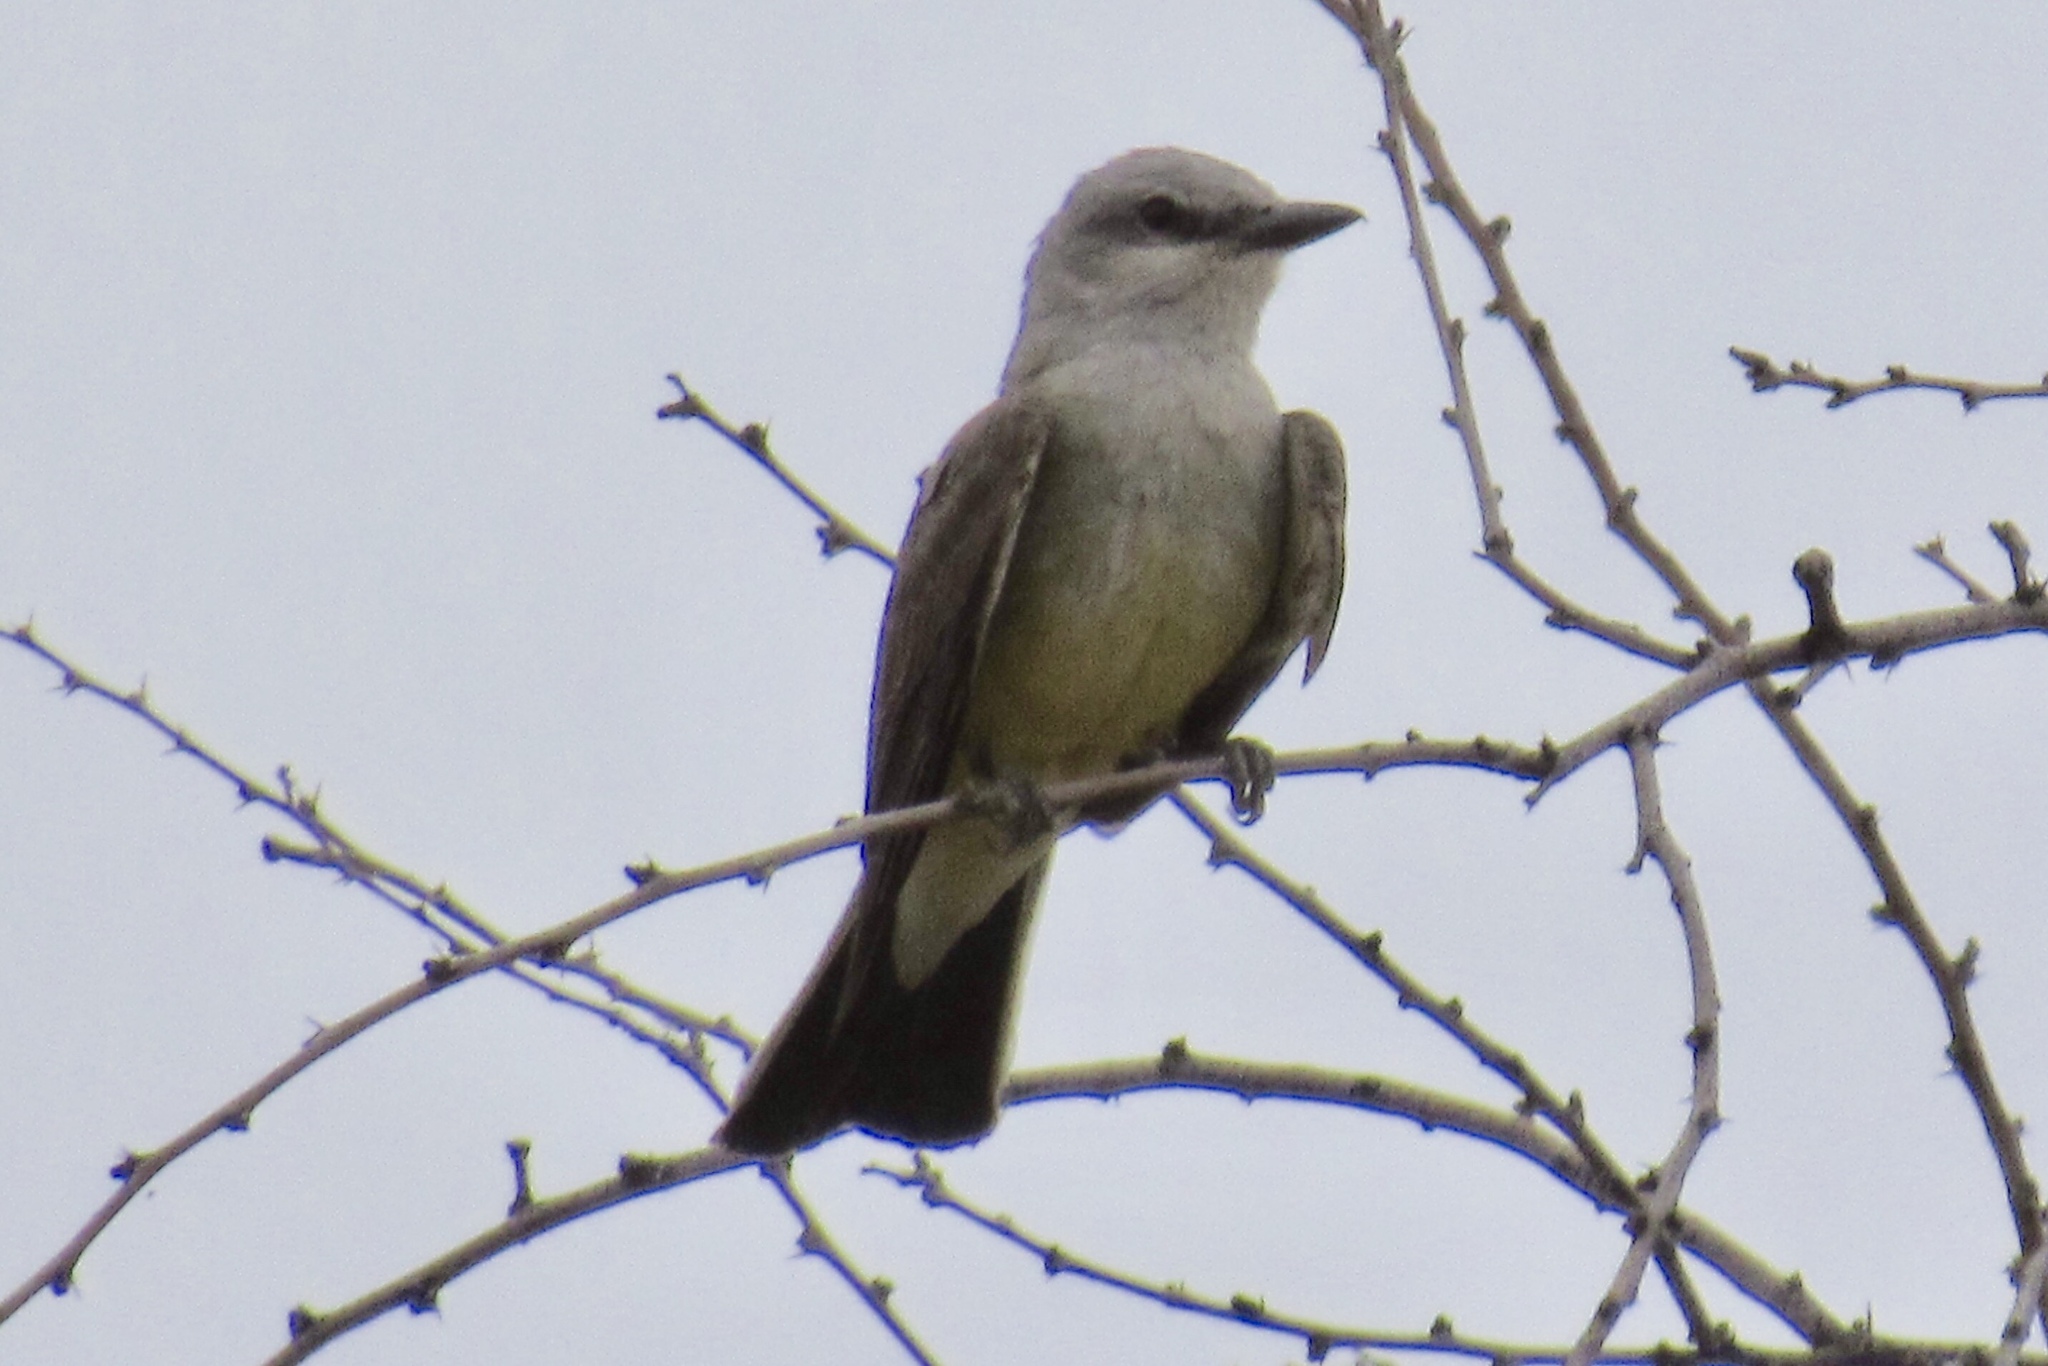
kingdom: Animalia
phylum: Chordata
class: Aves
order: Passeriformes
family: Tyrannidae
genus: Tyrannus
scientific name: Tyrannus verticalis
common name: Western kingbird
